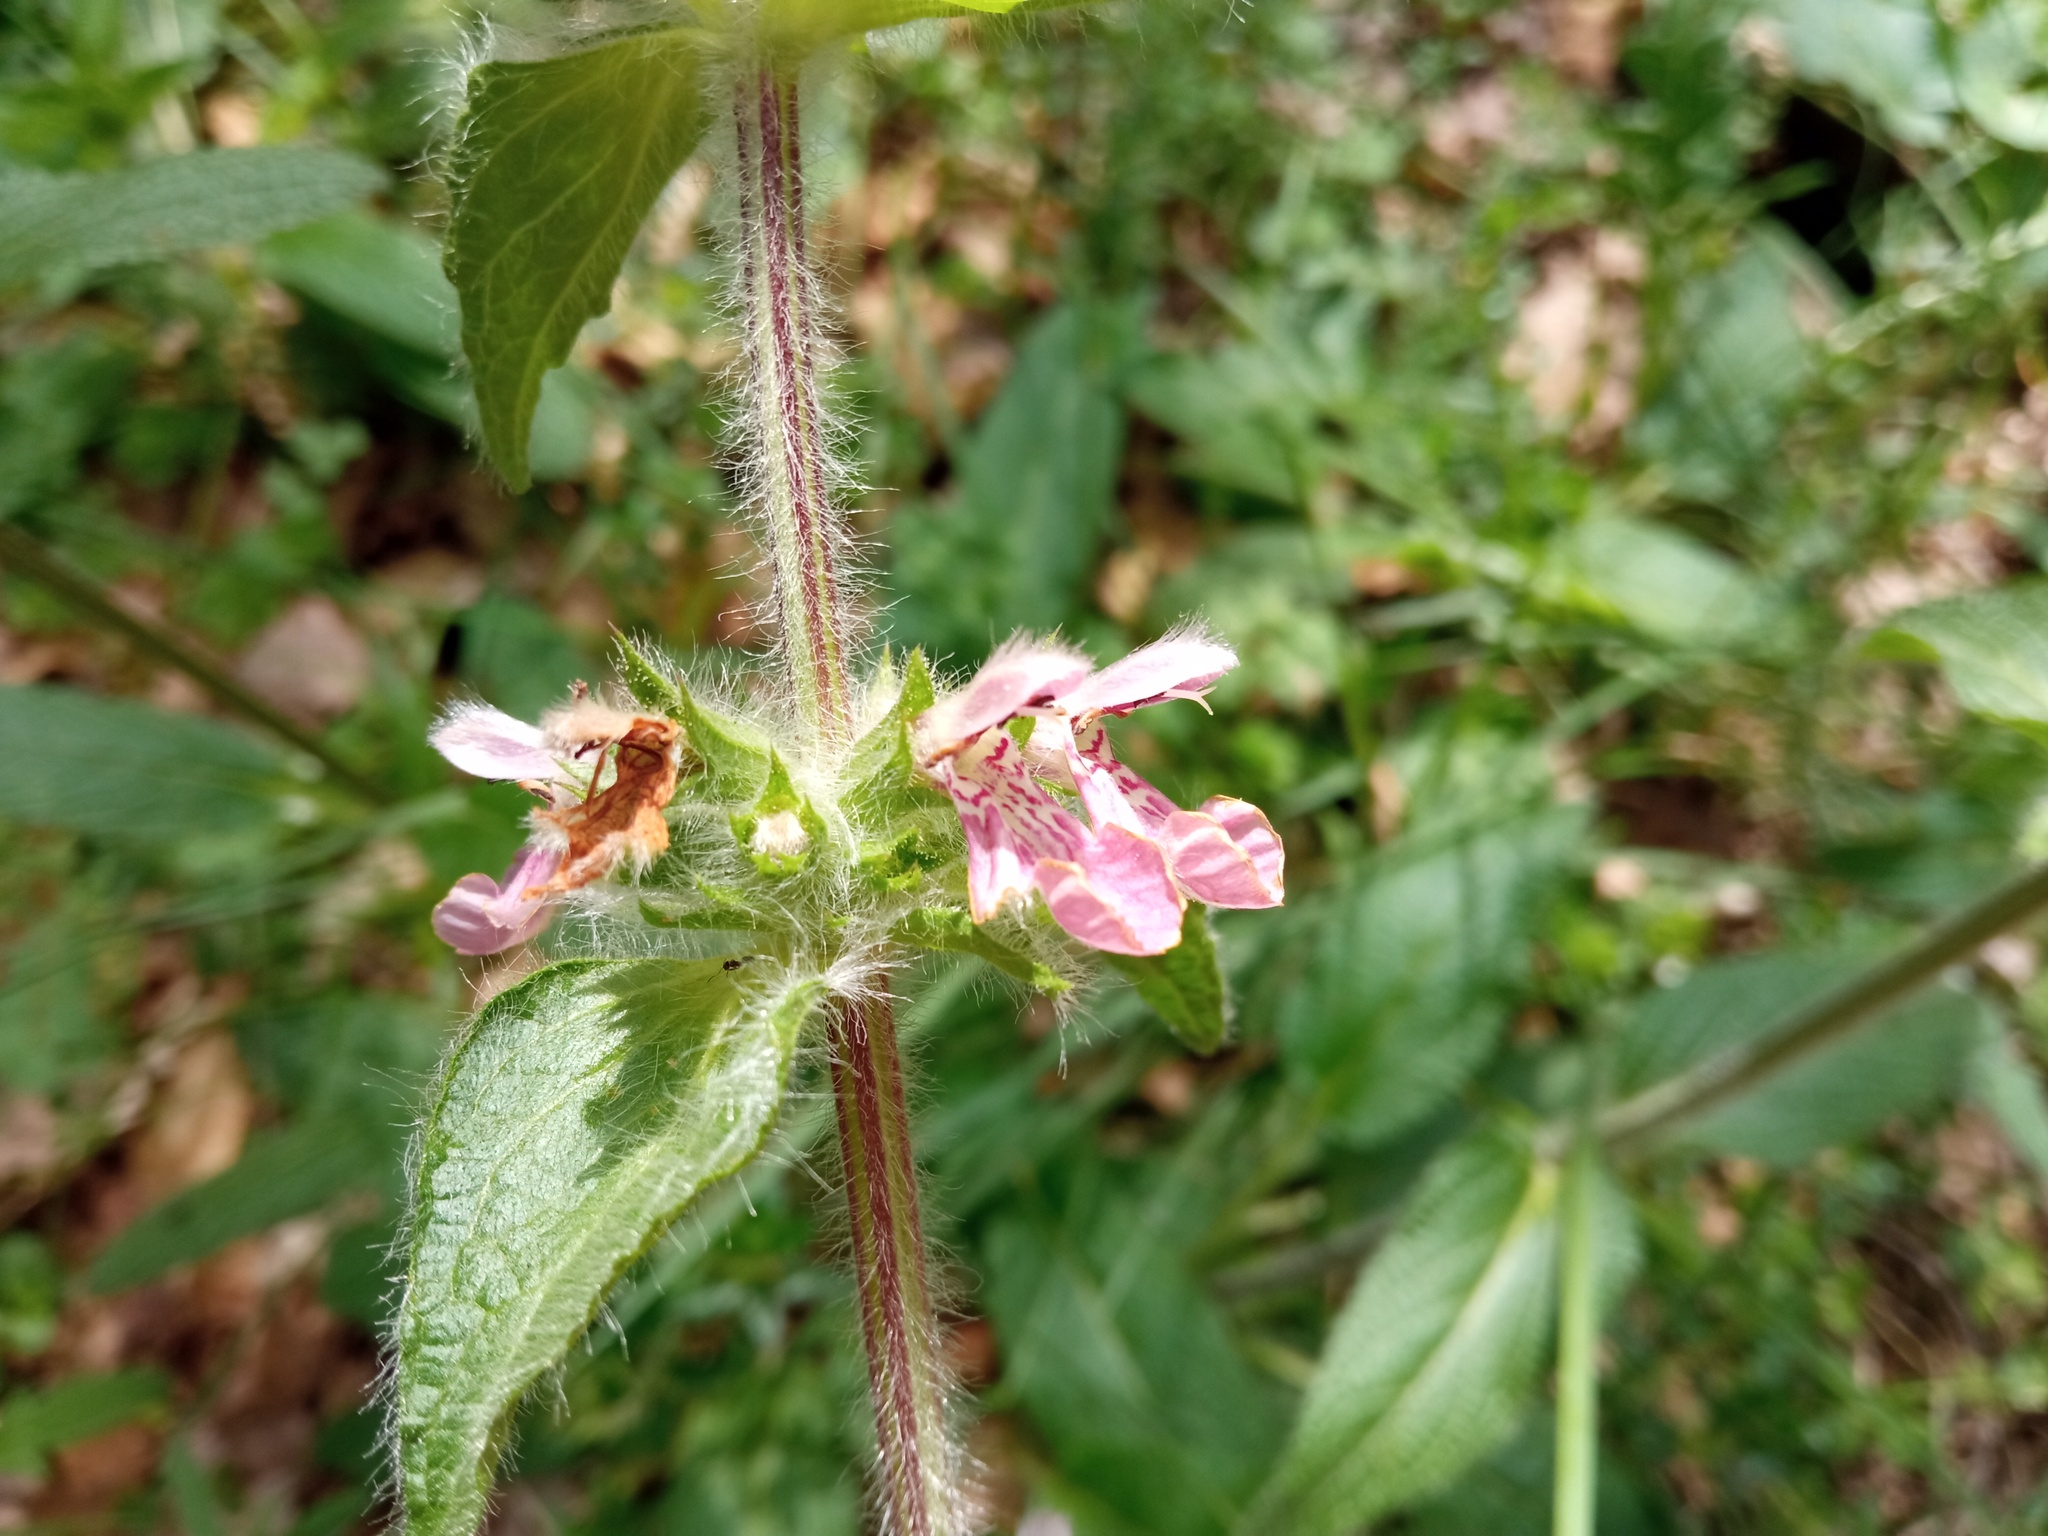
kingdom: Plantae
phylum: Tracheophyta
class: Magnoliopsida
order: Lamiales
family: Lamiaceae
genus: Stachys
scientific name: Stachys heraclea
